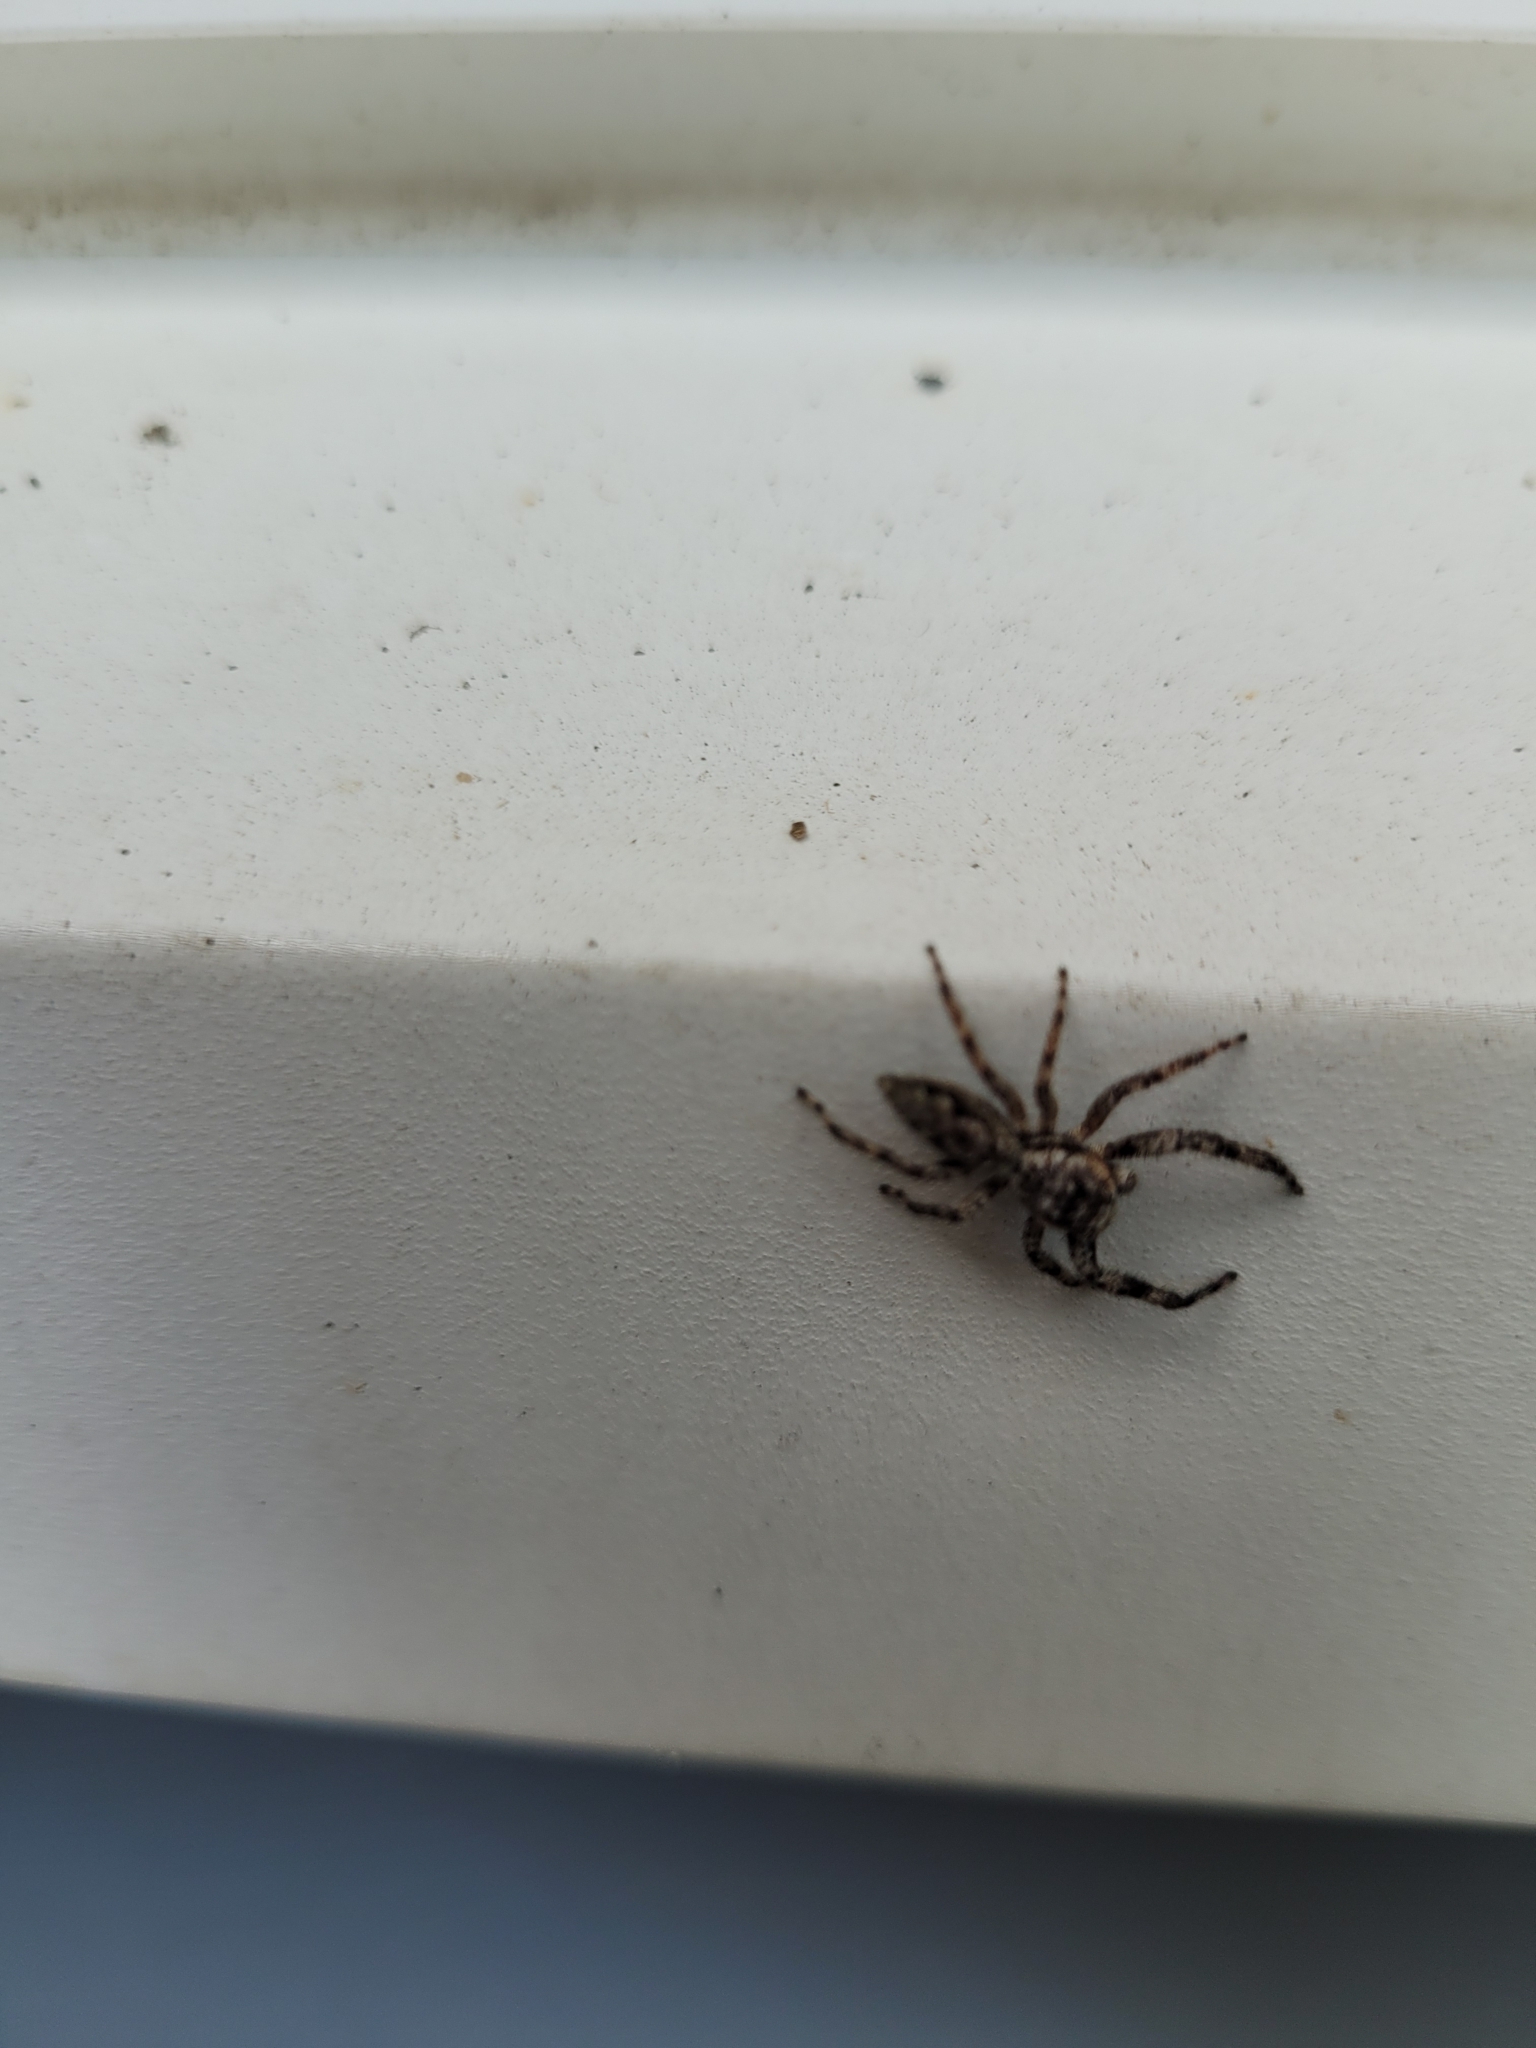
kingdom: Animalia
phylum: Arthropoda
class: Arachnida
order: Araneae
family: Salticidae
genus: Platycryptus
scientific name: Platycryptus undatus
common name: Tan jumping spider
